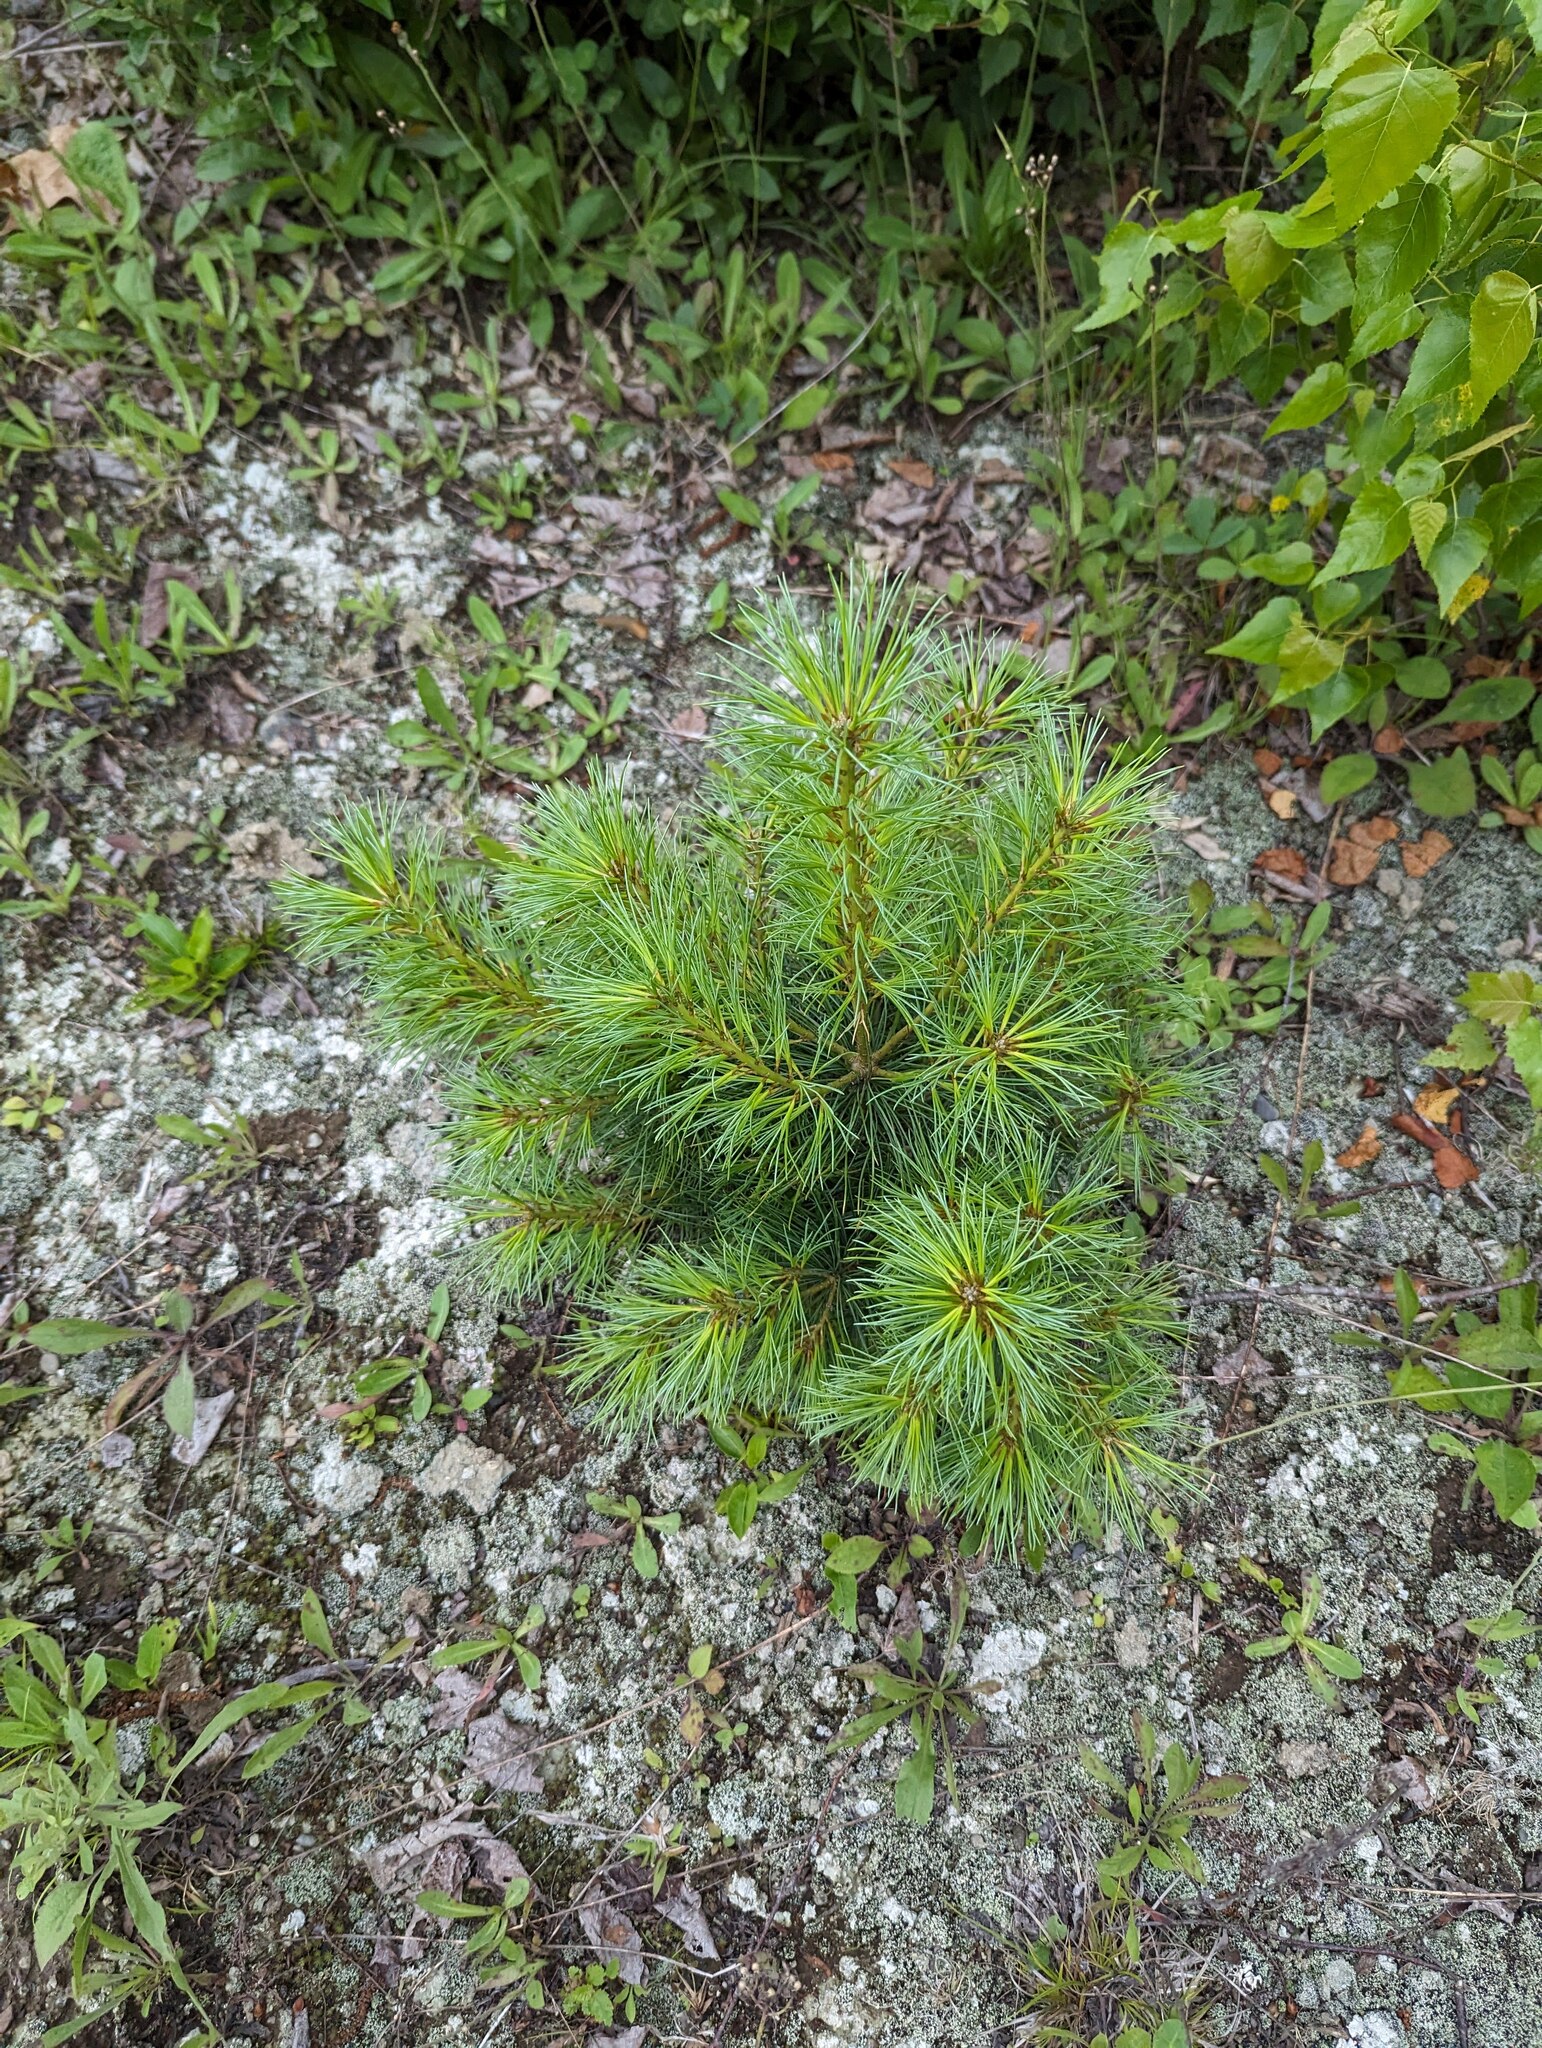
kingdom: Plantae
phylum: Tracheophyta
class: Pinopsida
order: Pinales
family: Pinaceae
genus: Pinus
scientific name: Pinus strobus
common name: Weymouth pine
